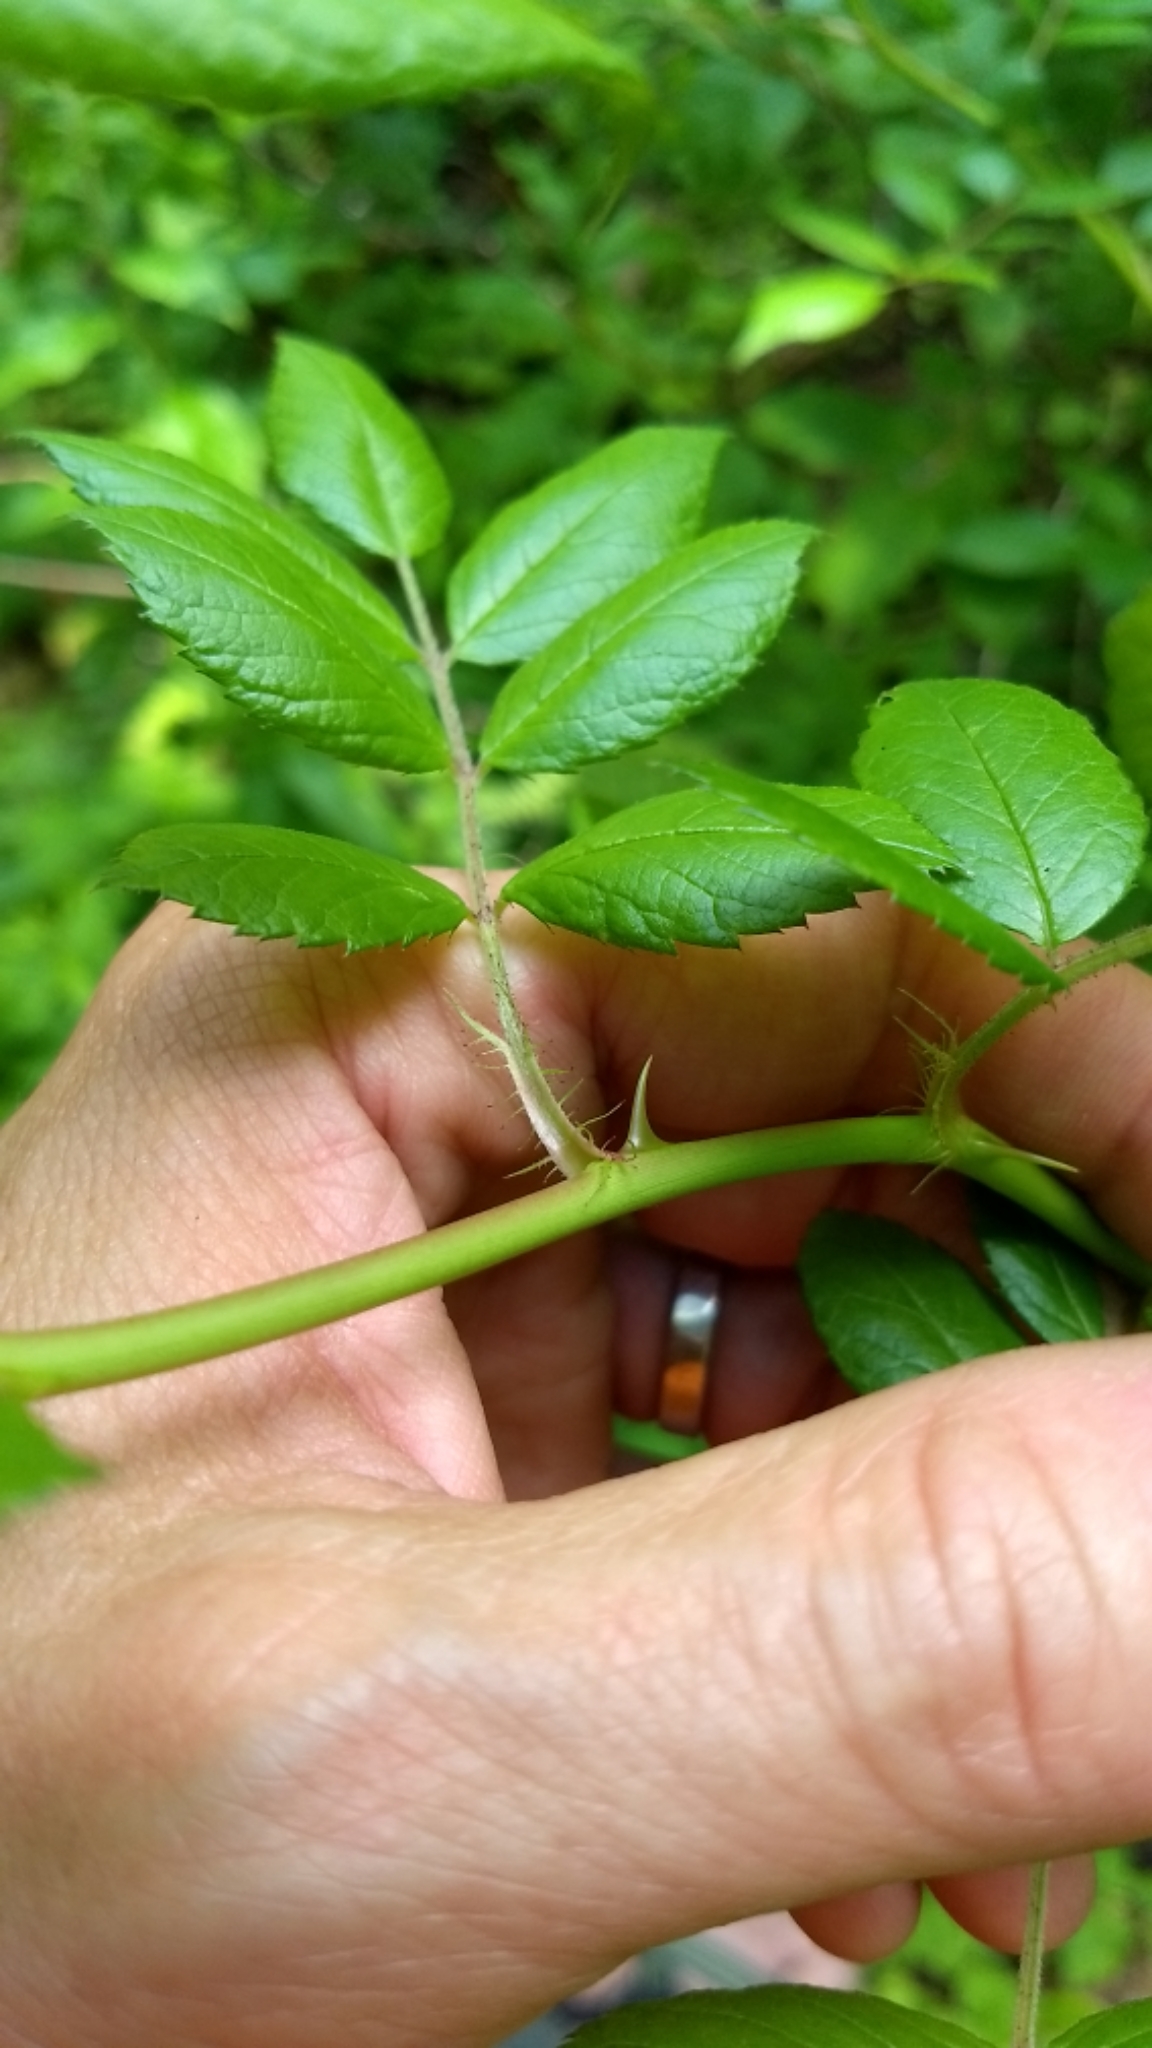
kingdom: Plantae
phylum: Tracheophyta
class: Magnoliopsida
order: Rosales
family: Rosaceae
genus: Rosa
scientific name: Rosa multiflora
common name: Multiflora rose
